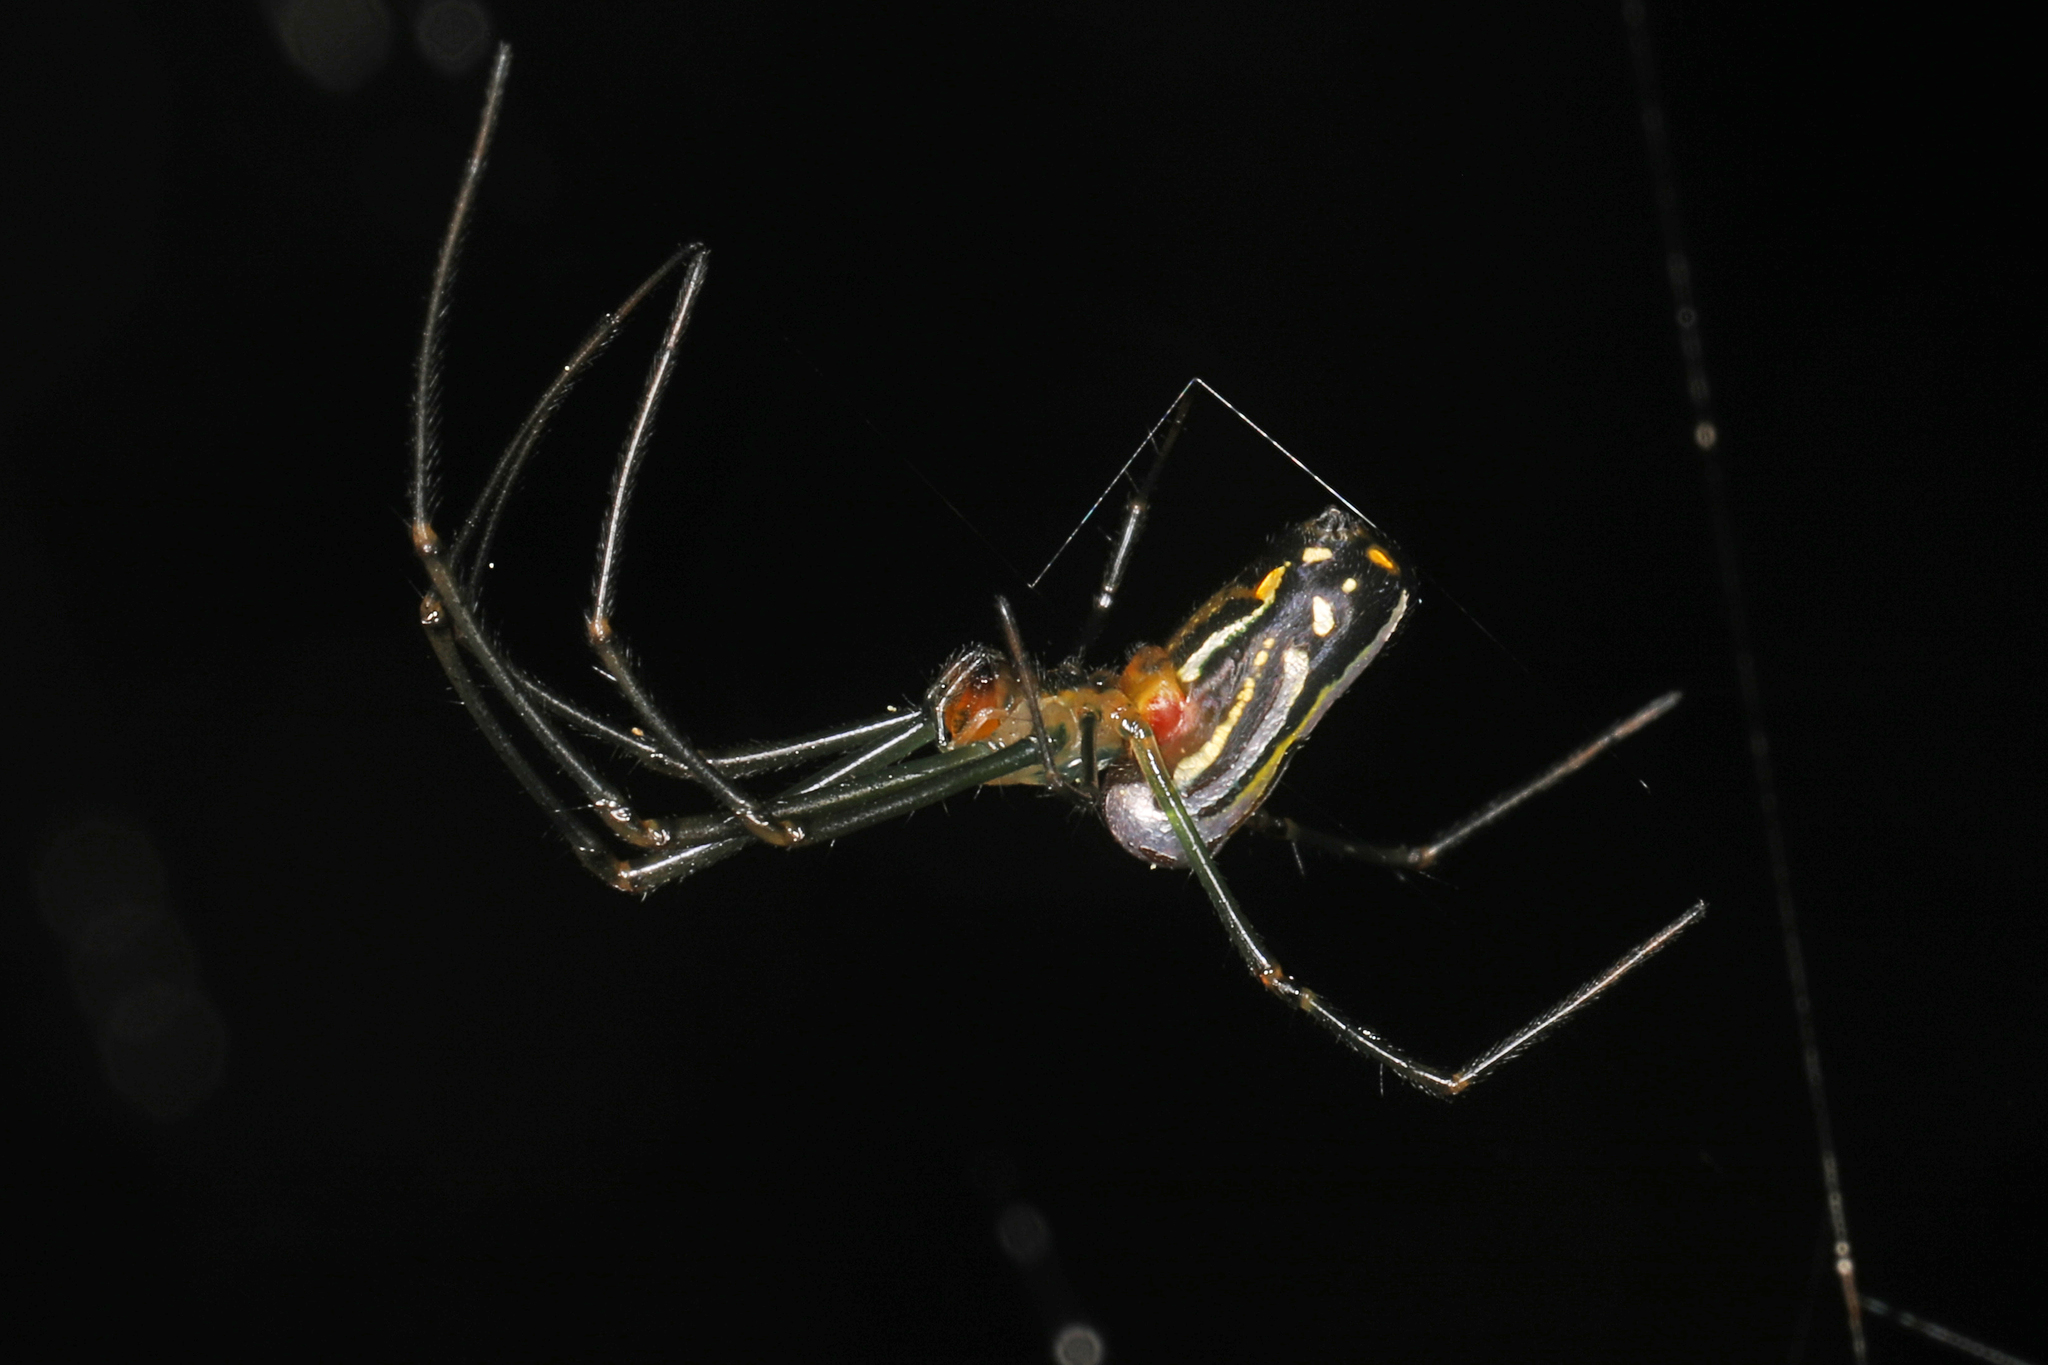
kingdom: Animalia
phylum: Arthropoda
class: Arachnida
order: Araneae
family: Tetragnathidae
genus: Leucauge
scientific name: Leucauge argyra
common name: Longjawed orb weavers
